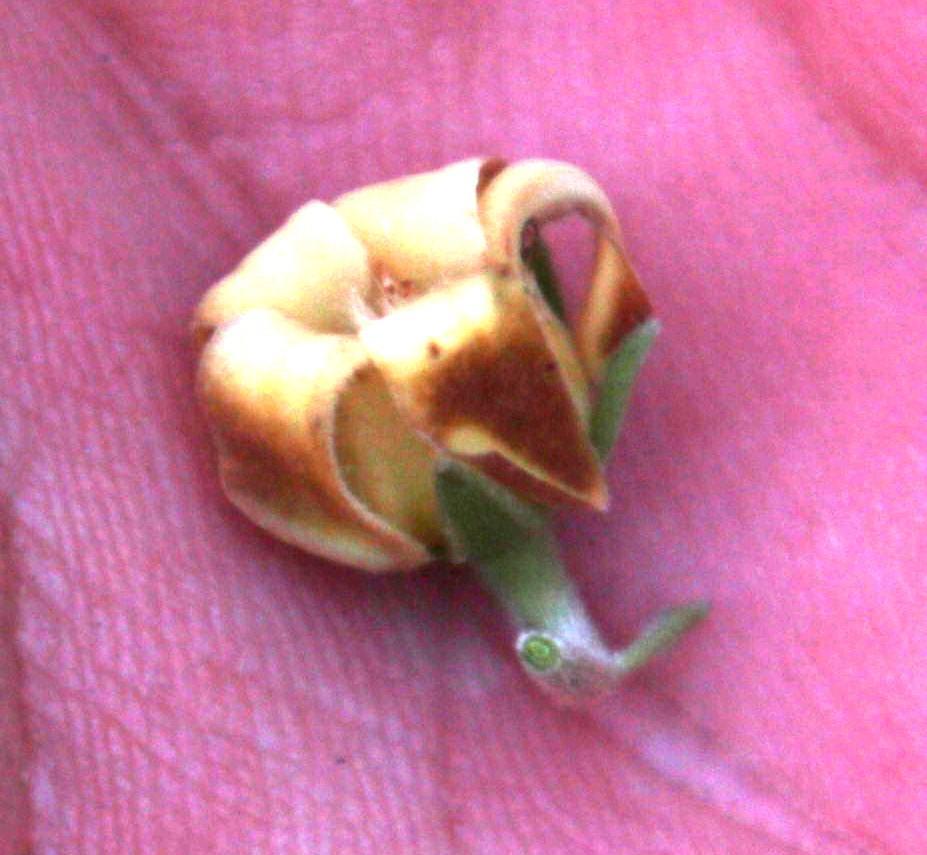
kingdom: Plantae
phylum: Tracheophyta
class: Magnoliopsida
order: Ericales
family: Ebenaceae
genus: Diospyros
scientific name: Diospyros dichrophylla
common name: Common star-apple
